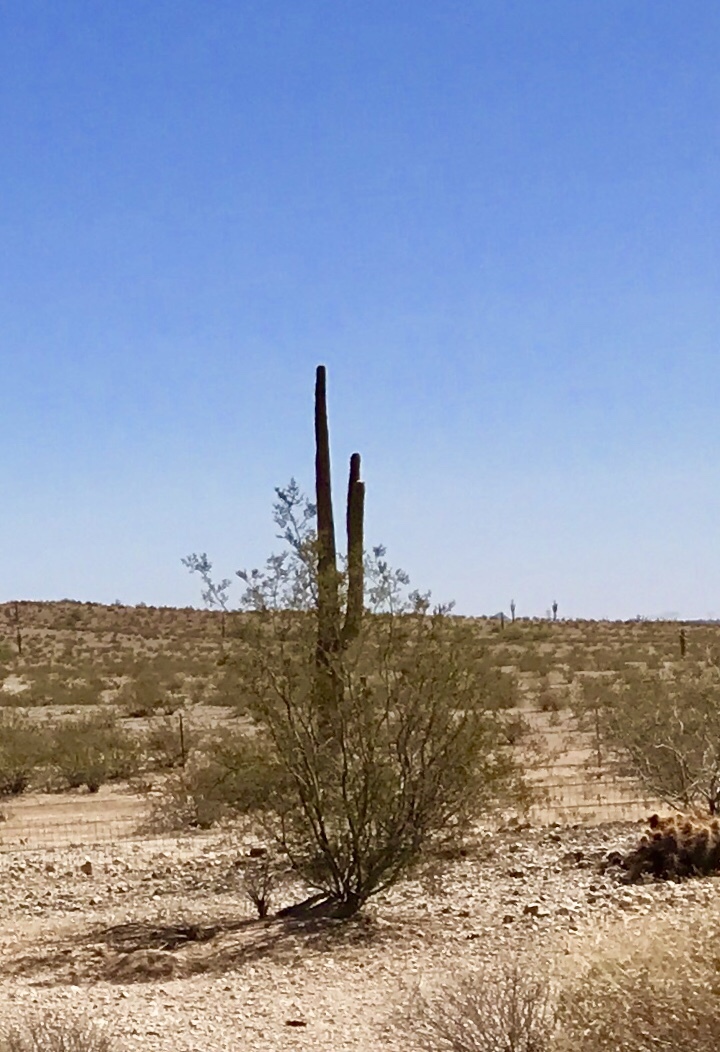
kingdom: Plantae
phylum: Tracheophyta
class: Magnoliopsida
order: Zygophyllales
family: Zygophyllaceae
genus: Larrea
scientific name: Larrea tridentata
